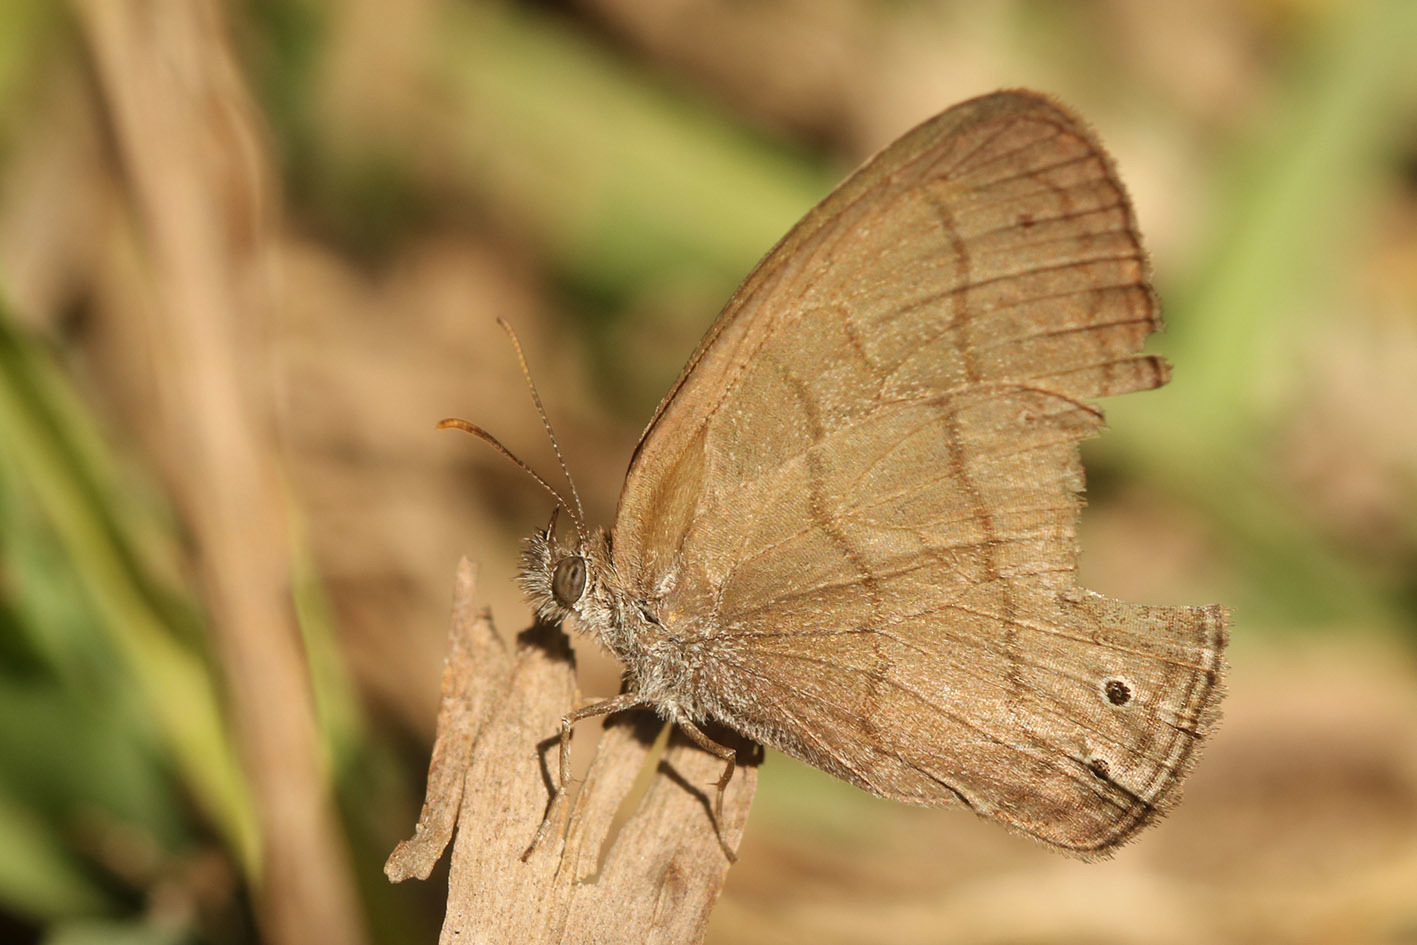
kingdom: Animalia
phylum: Arthropoda
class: Insecta
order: Lepidoptera
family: Nymphalidae
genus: Hermeuptychia
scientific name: Hermeuptychia isabella
